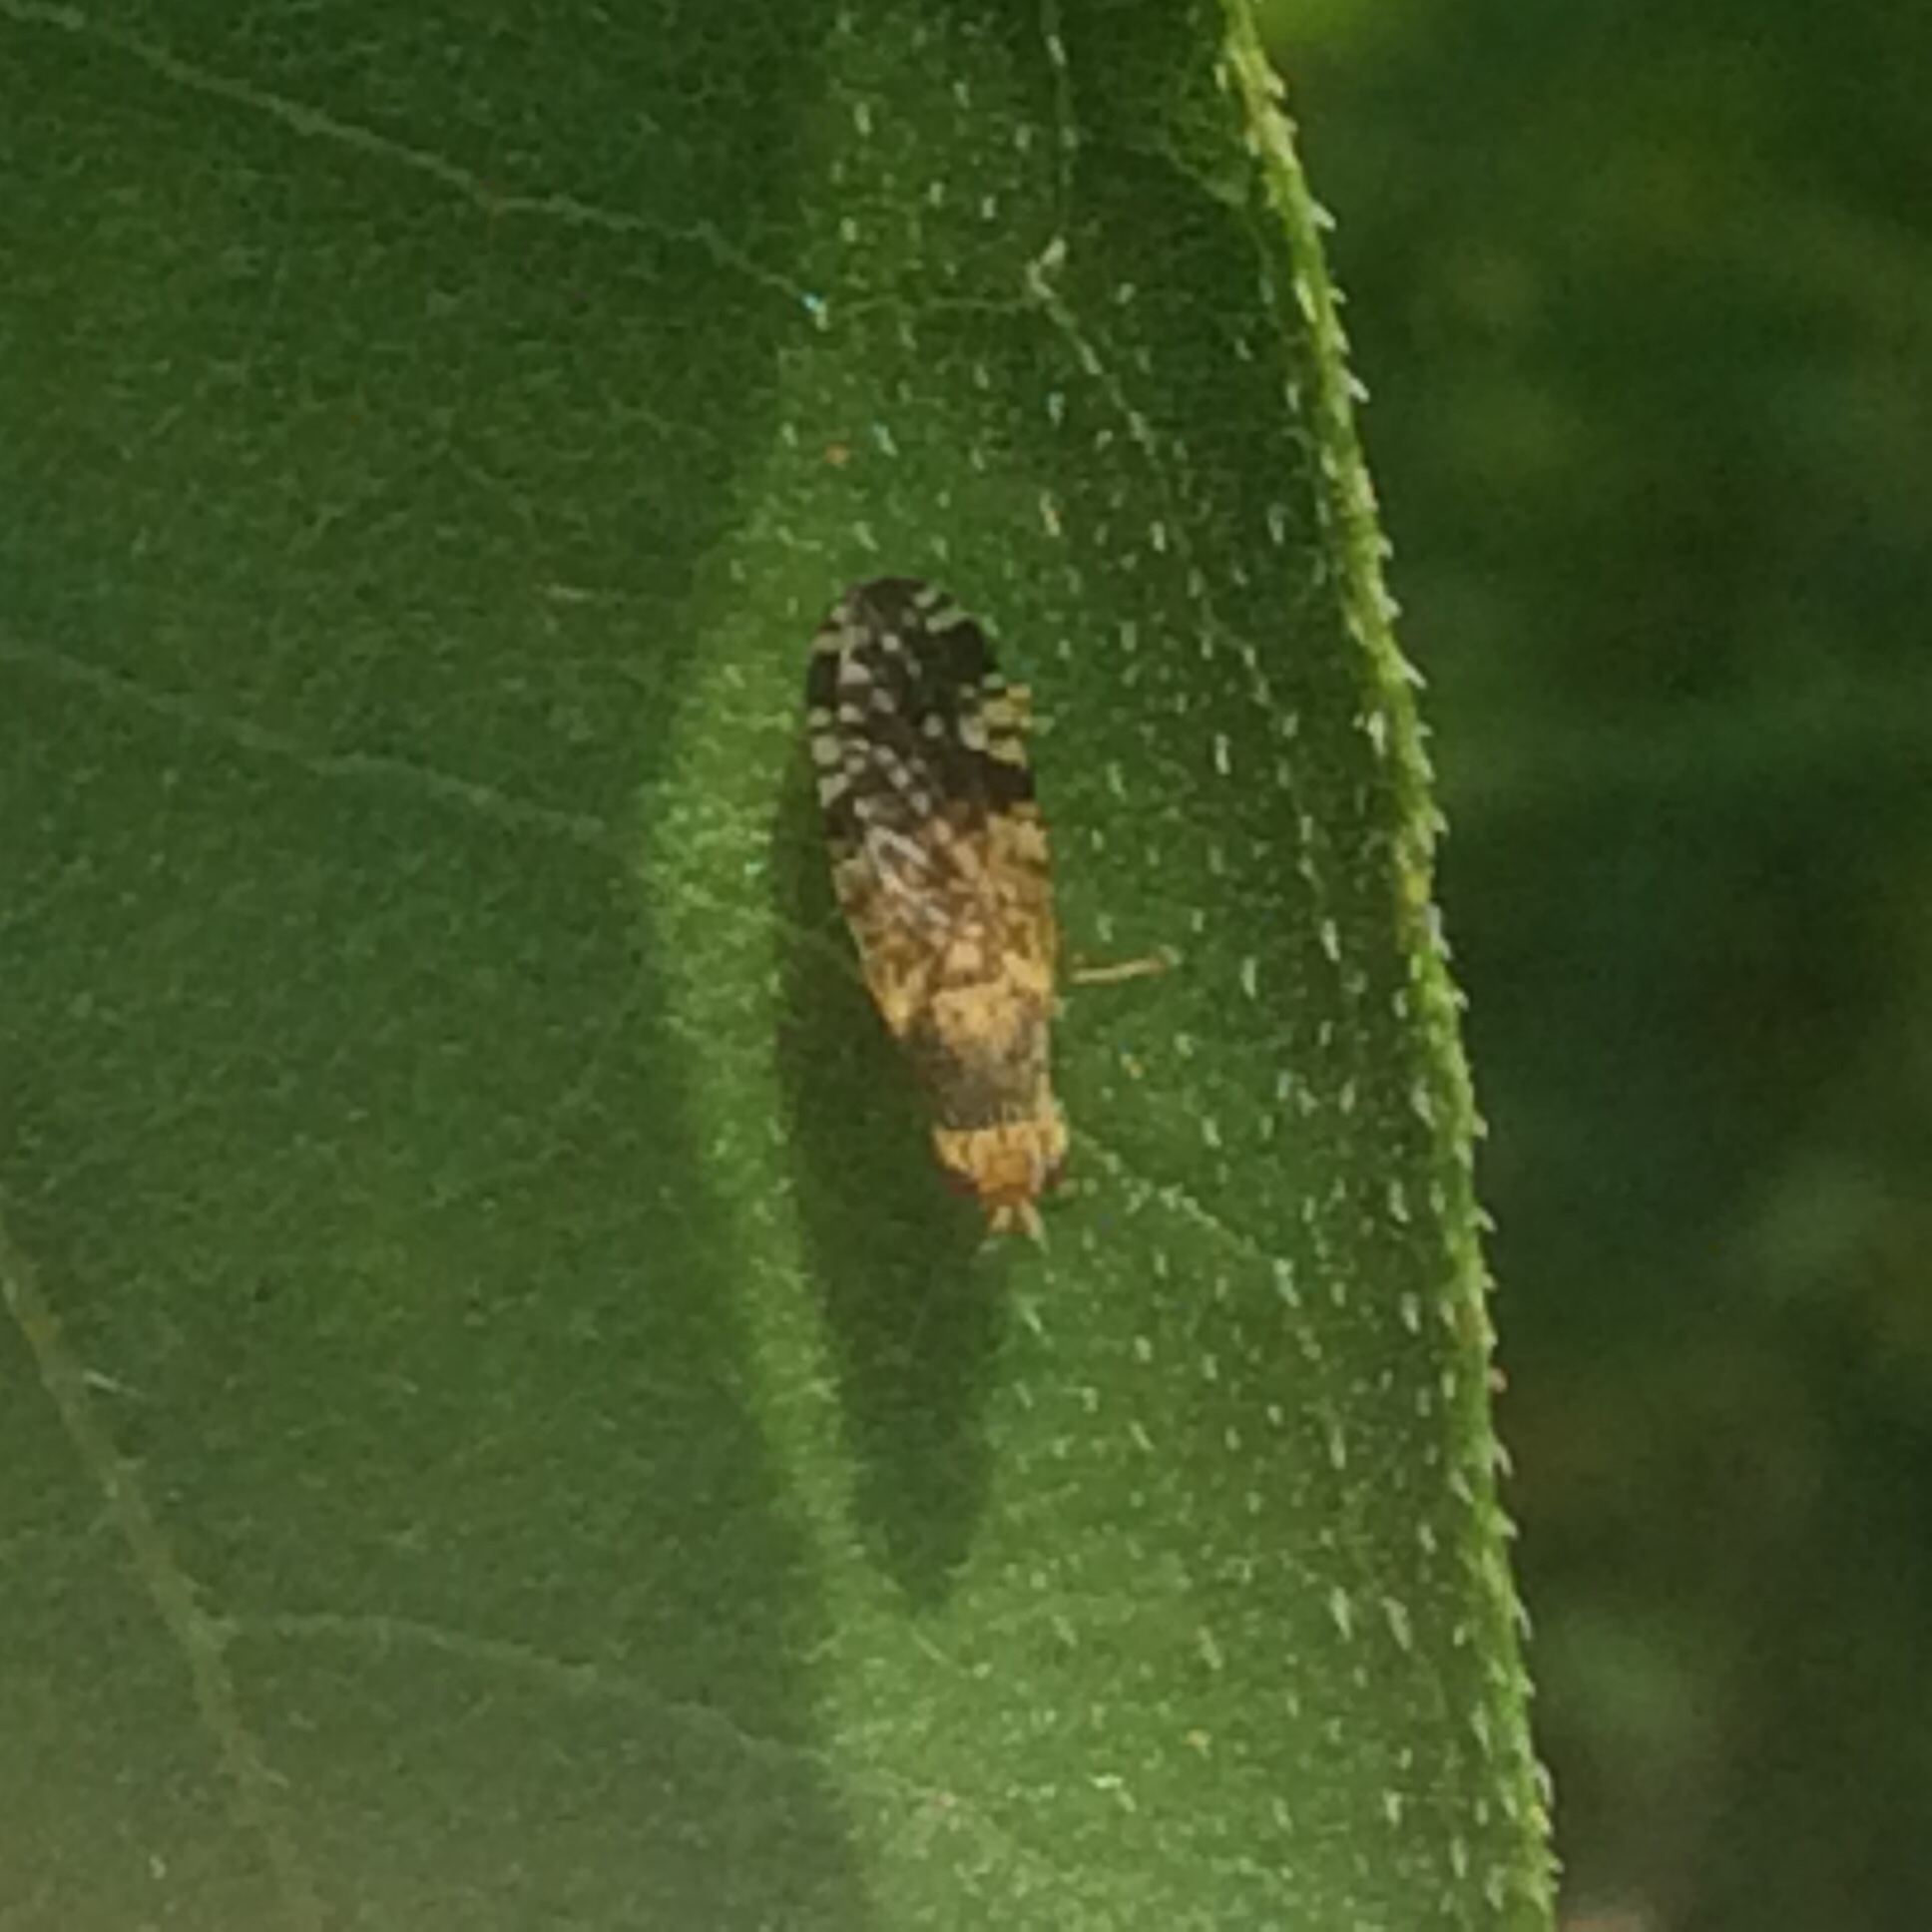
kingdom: Animalia
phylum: Arthropoda
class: Insecta
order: Diptera
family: Tephritidae
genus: Neotephritis
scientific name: Neotephritis finalis
